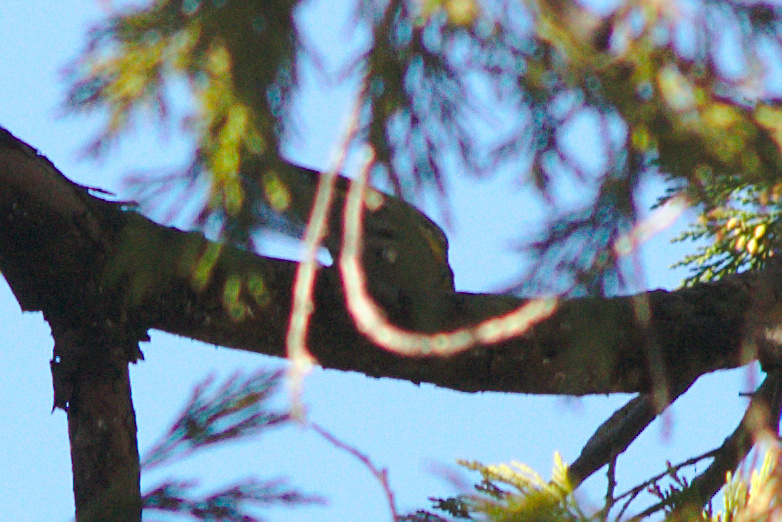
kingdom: Animalia
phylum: Chordata
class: Aves
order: Passeriformes
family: Parulidae
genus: Setophaga
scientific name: Setophaga coronata
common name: Myrtle warbler
